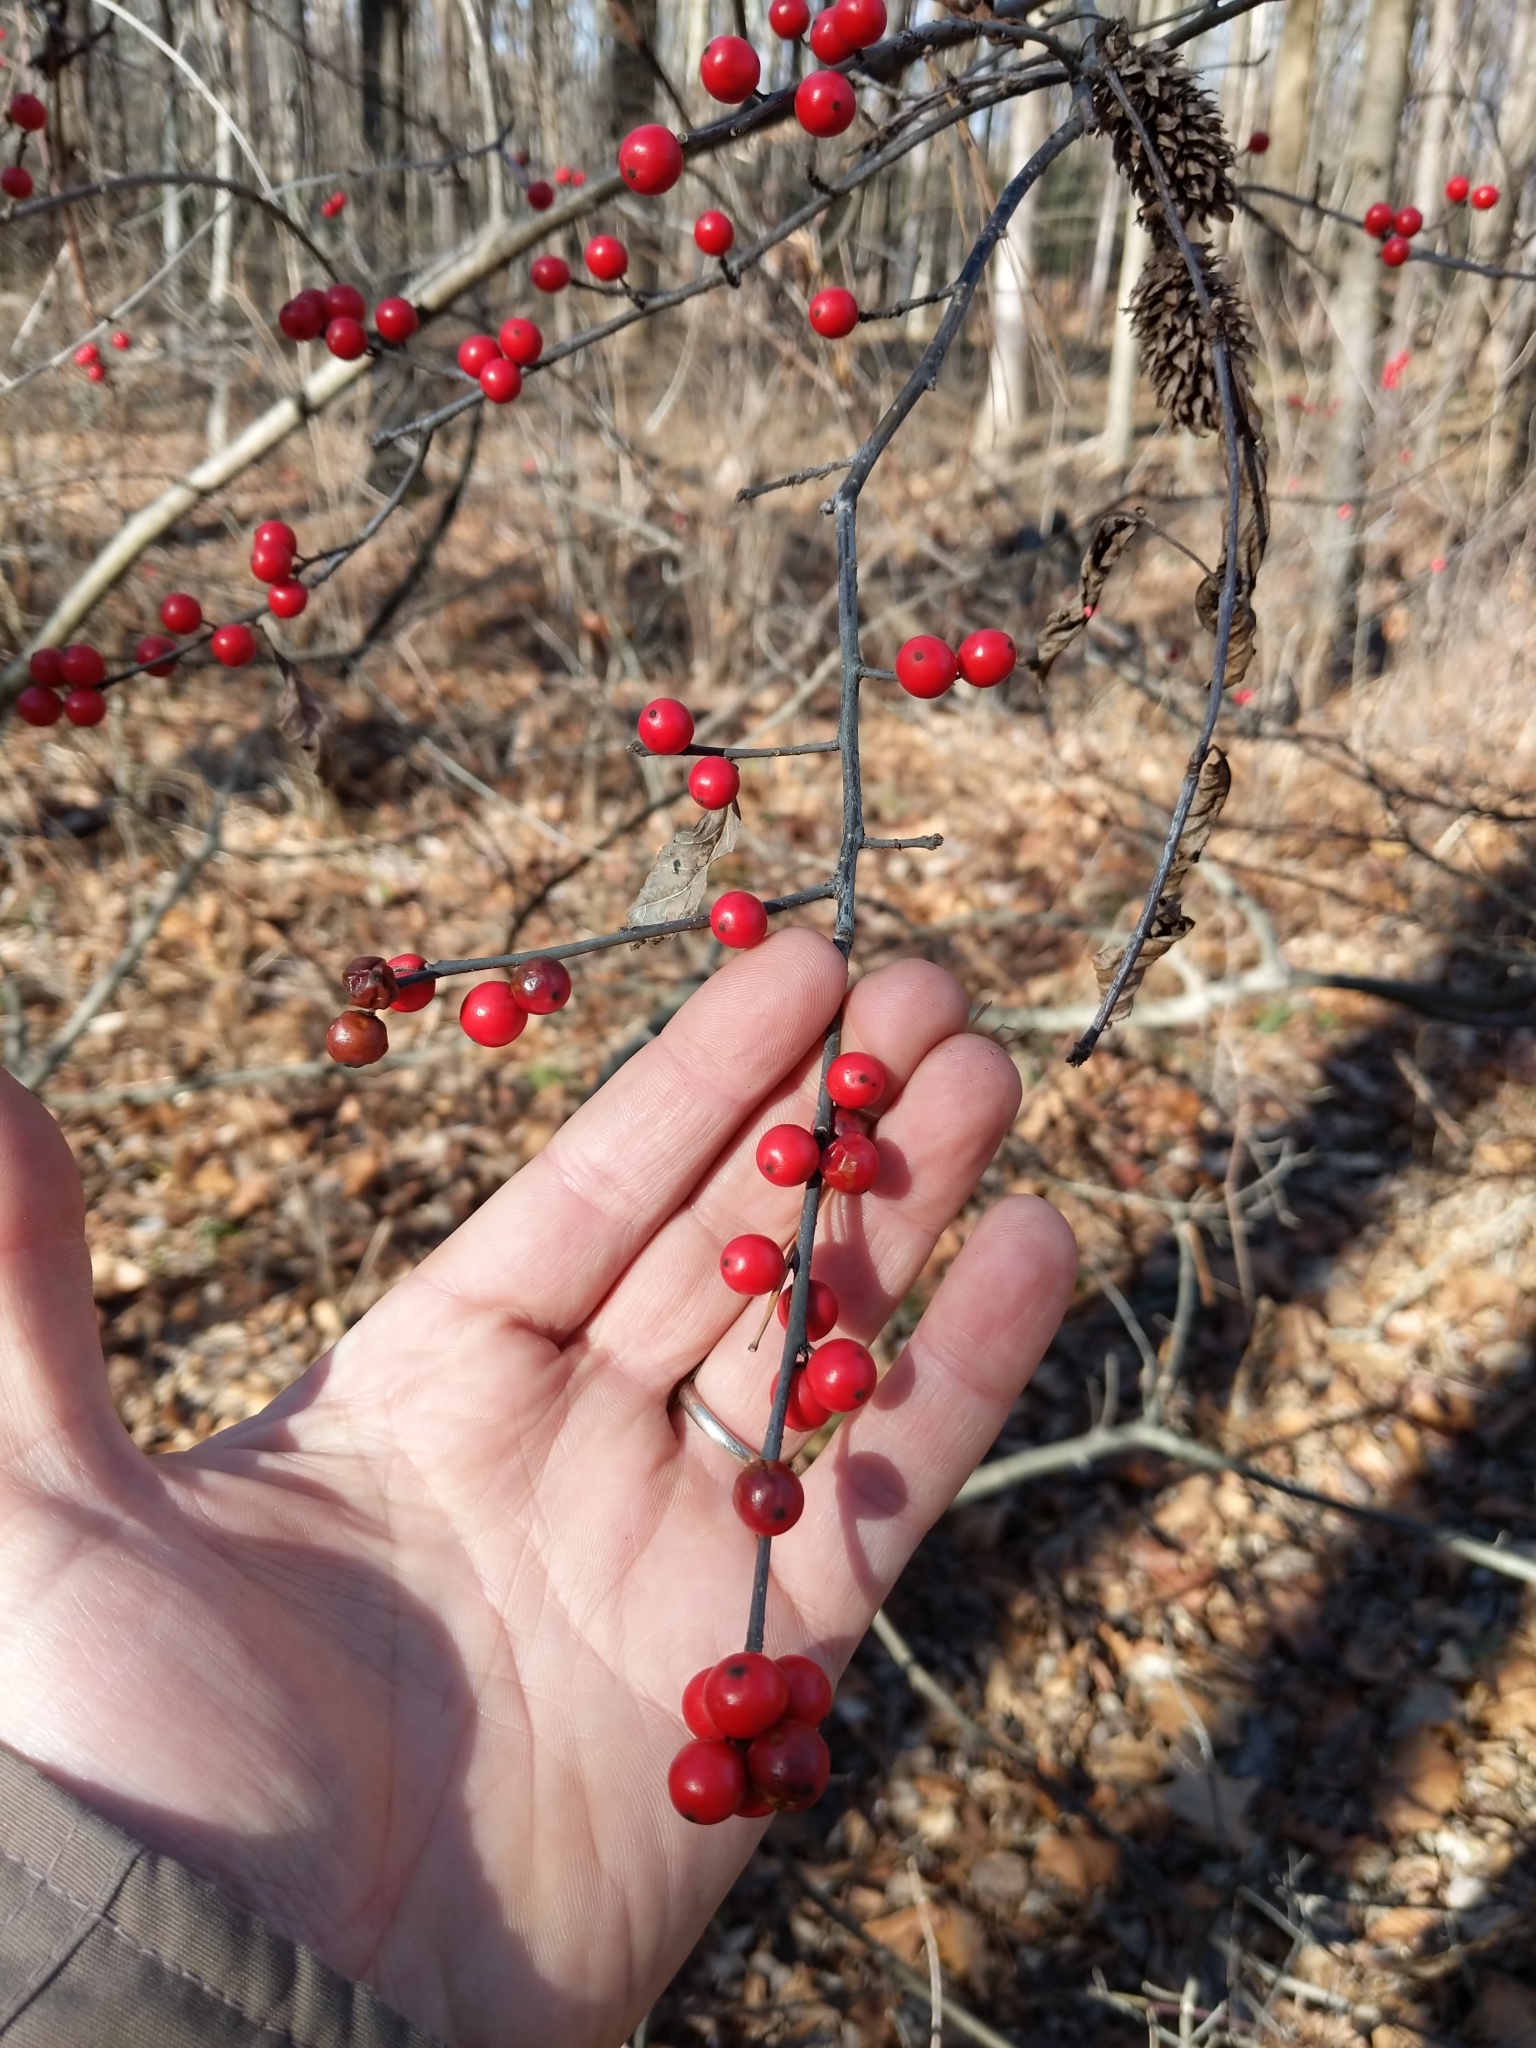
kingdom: Plantae
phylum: Tracheophyta
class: Magnoliopsida
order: Aquifoliales
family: Aquifoliaceae
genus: Ilex
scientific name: Ilex verticillata
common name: Virginia winterberry
